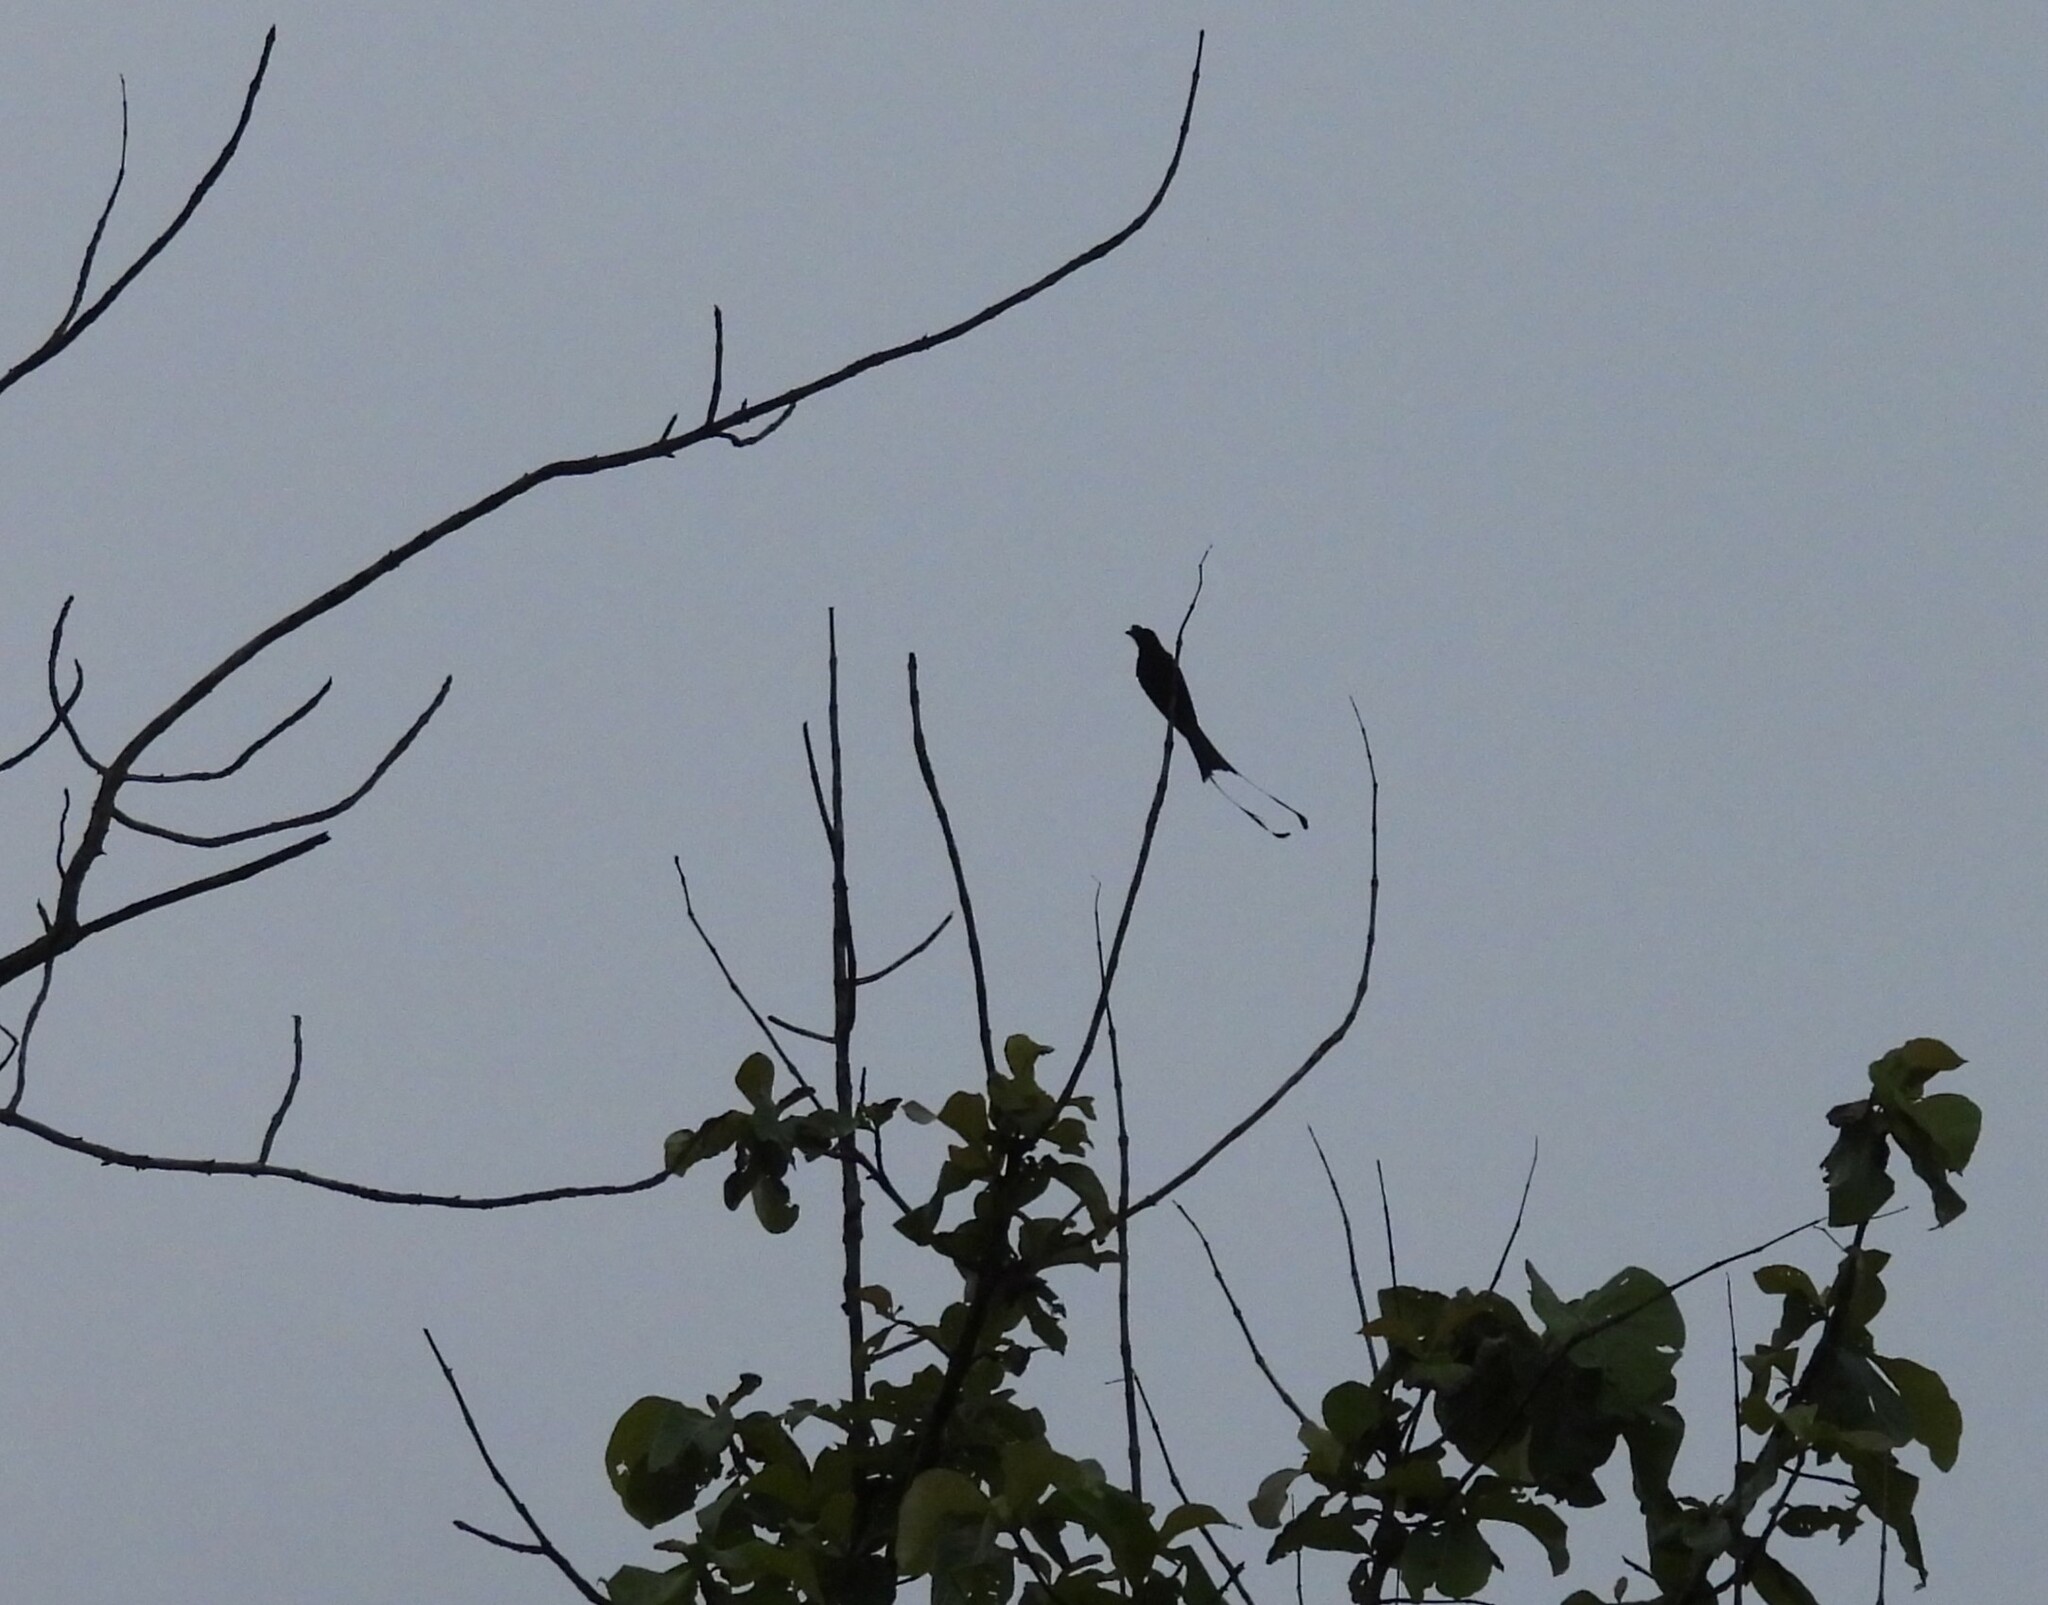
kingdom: Animalia
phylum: Chordata
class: Aves
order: Passeriformes
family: Dicruridae
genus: Dicrurus
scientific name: Dicrurus paradiseus
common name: Greater racket-tailed drongo
